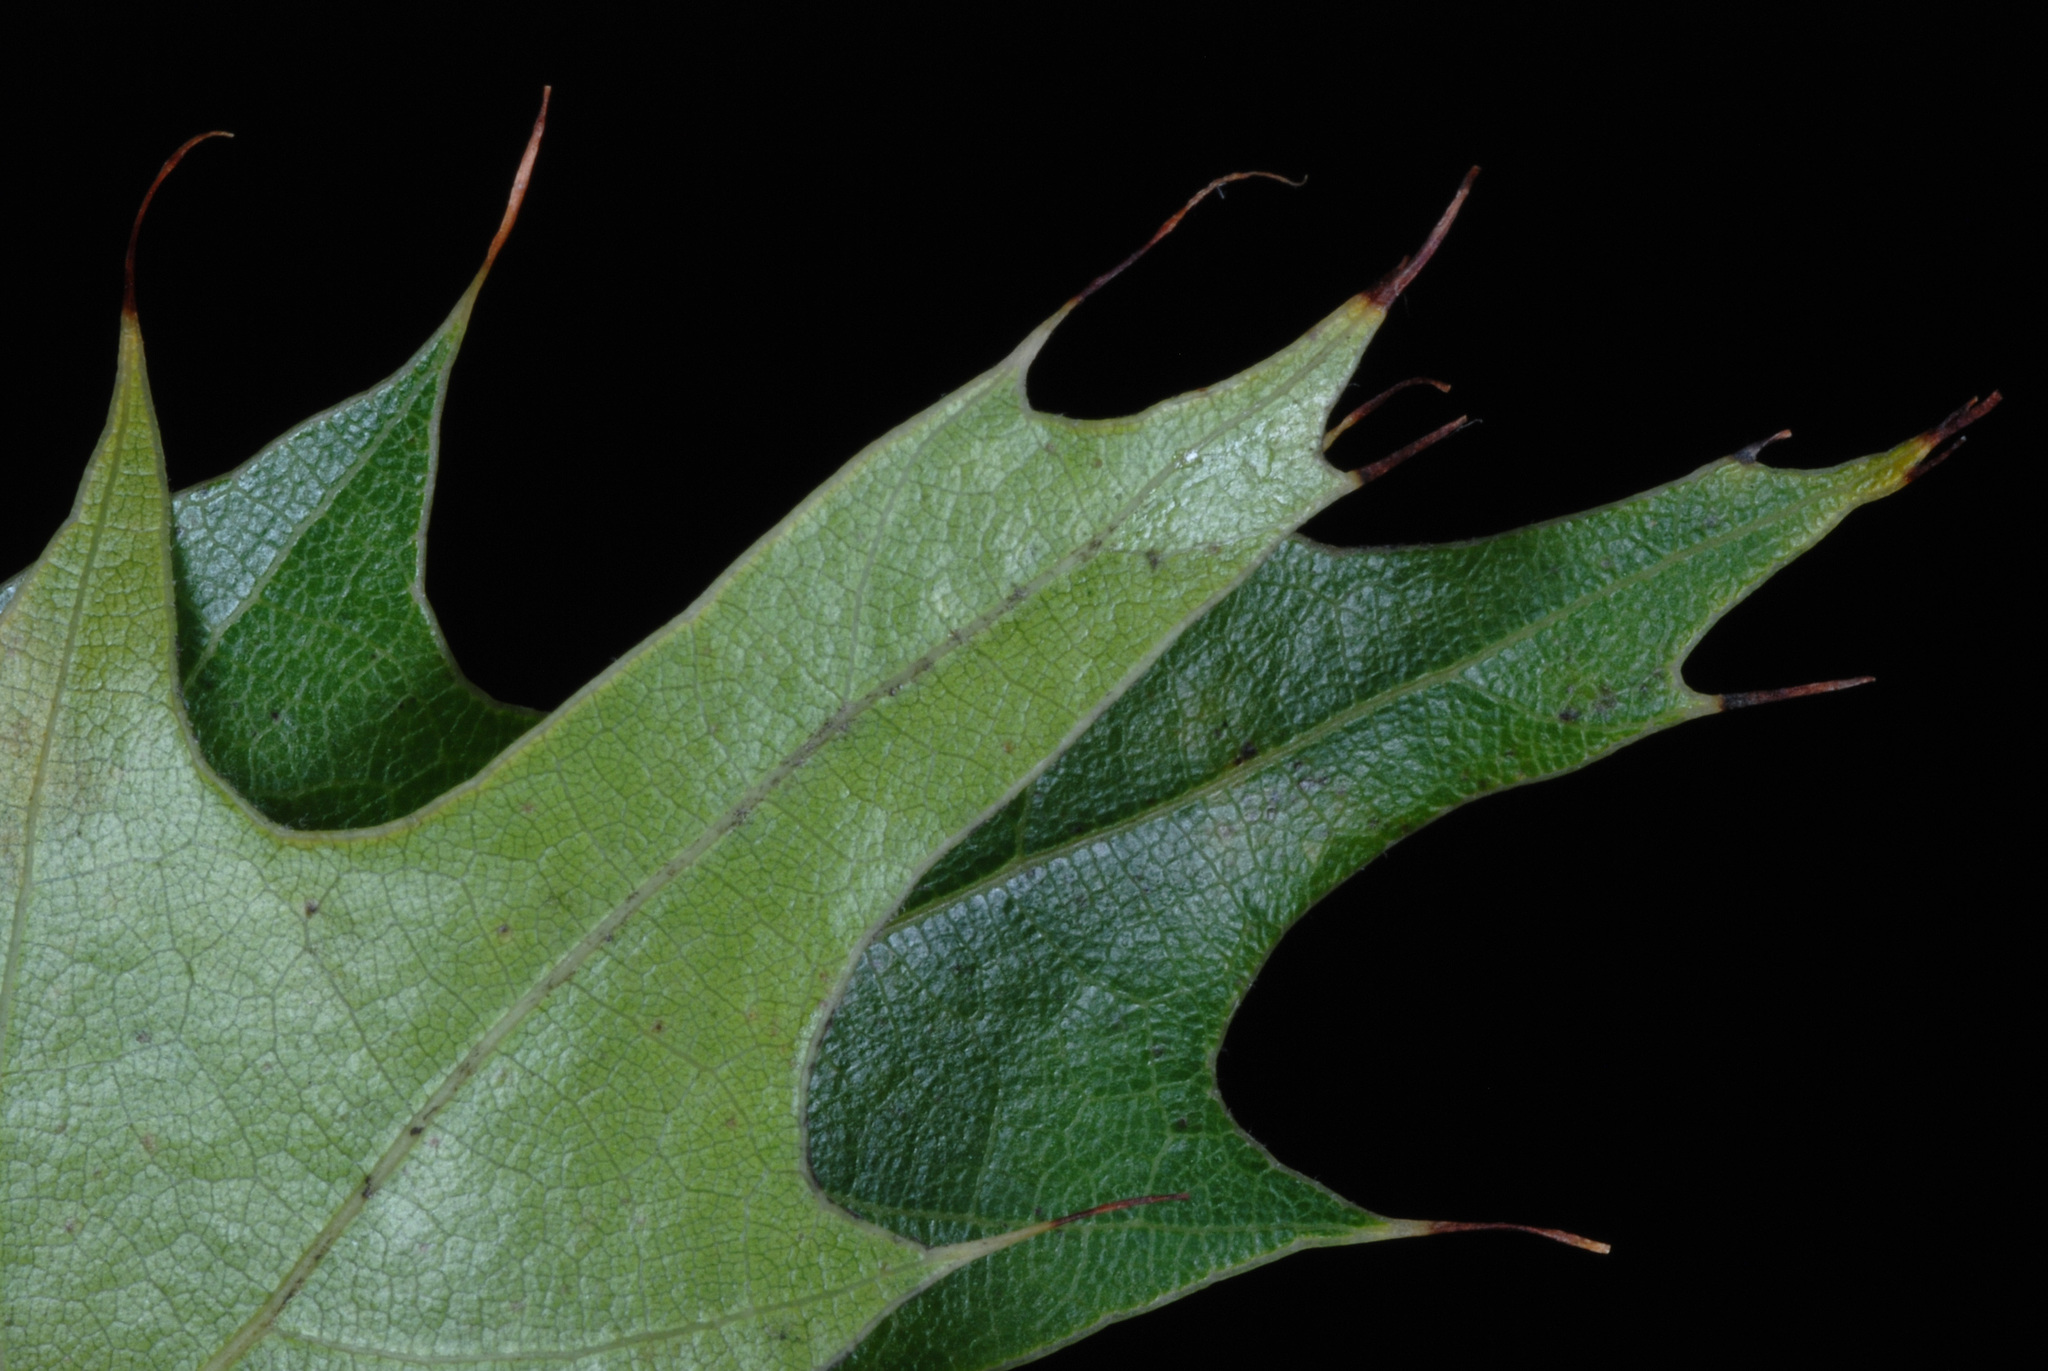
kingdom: Plantae
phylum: Tracheophyta
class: Magnoliopsida
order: Fagales
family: Fagaceae
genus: Quercus
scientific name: Quercus coccinea
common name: Scarlet oak
